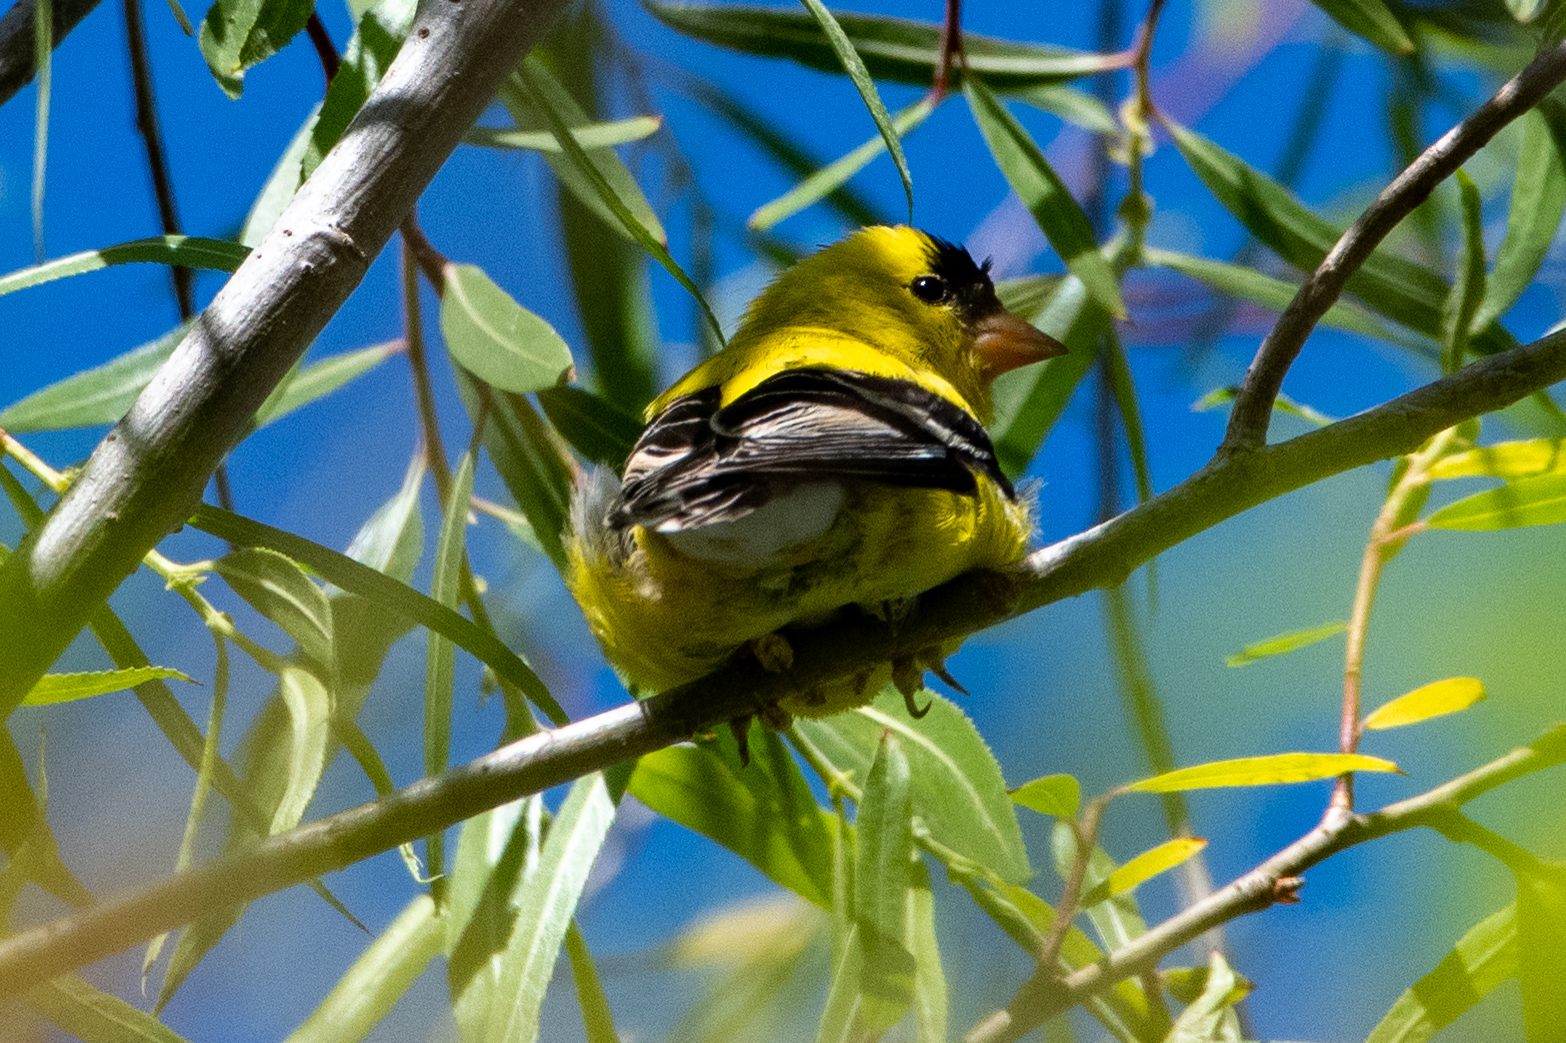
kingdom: Animalia
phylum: Chordata
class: Aves
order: Passeriformes
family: Fringillidae
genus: Spinus
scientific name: Spinus tristis
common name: American goldfinch
